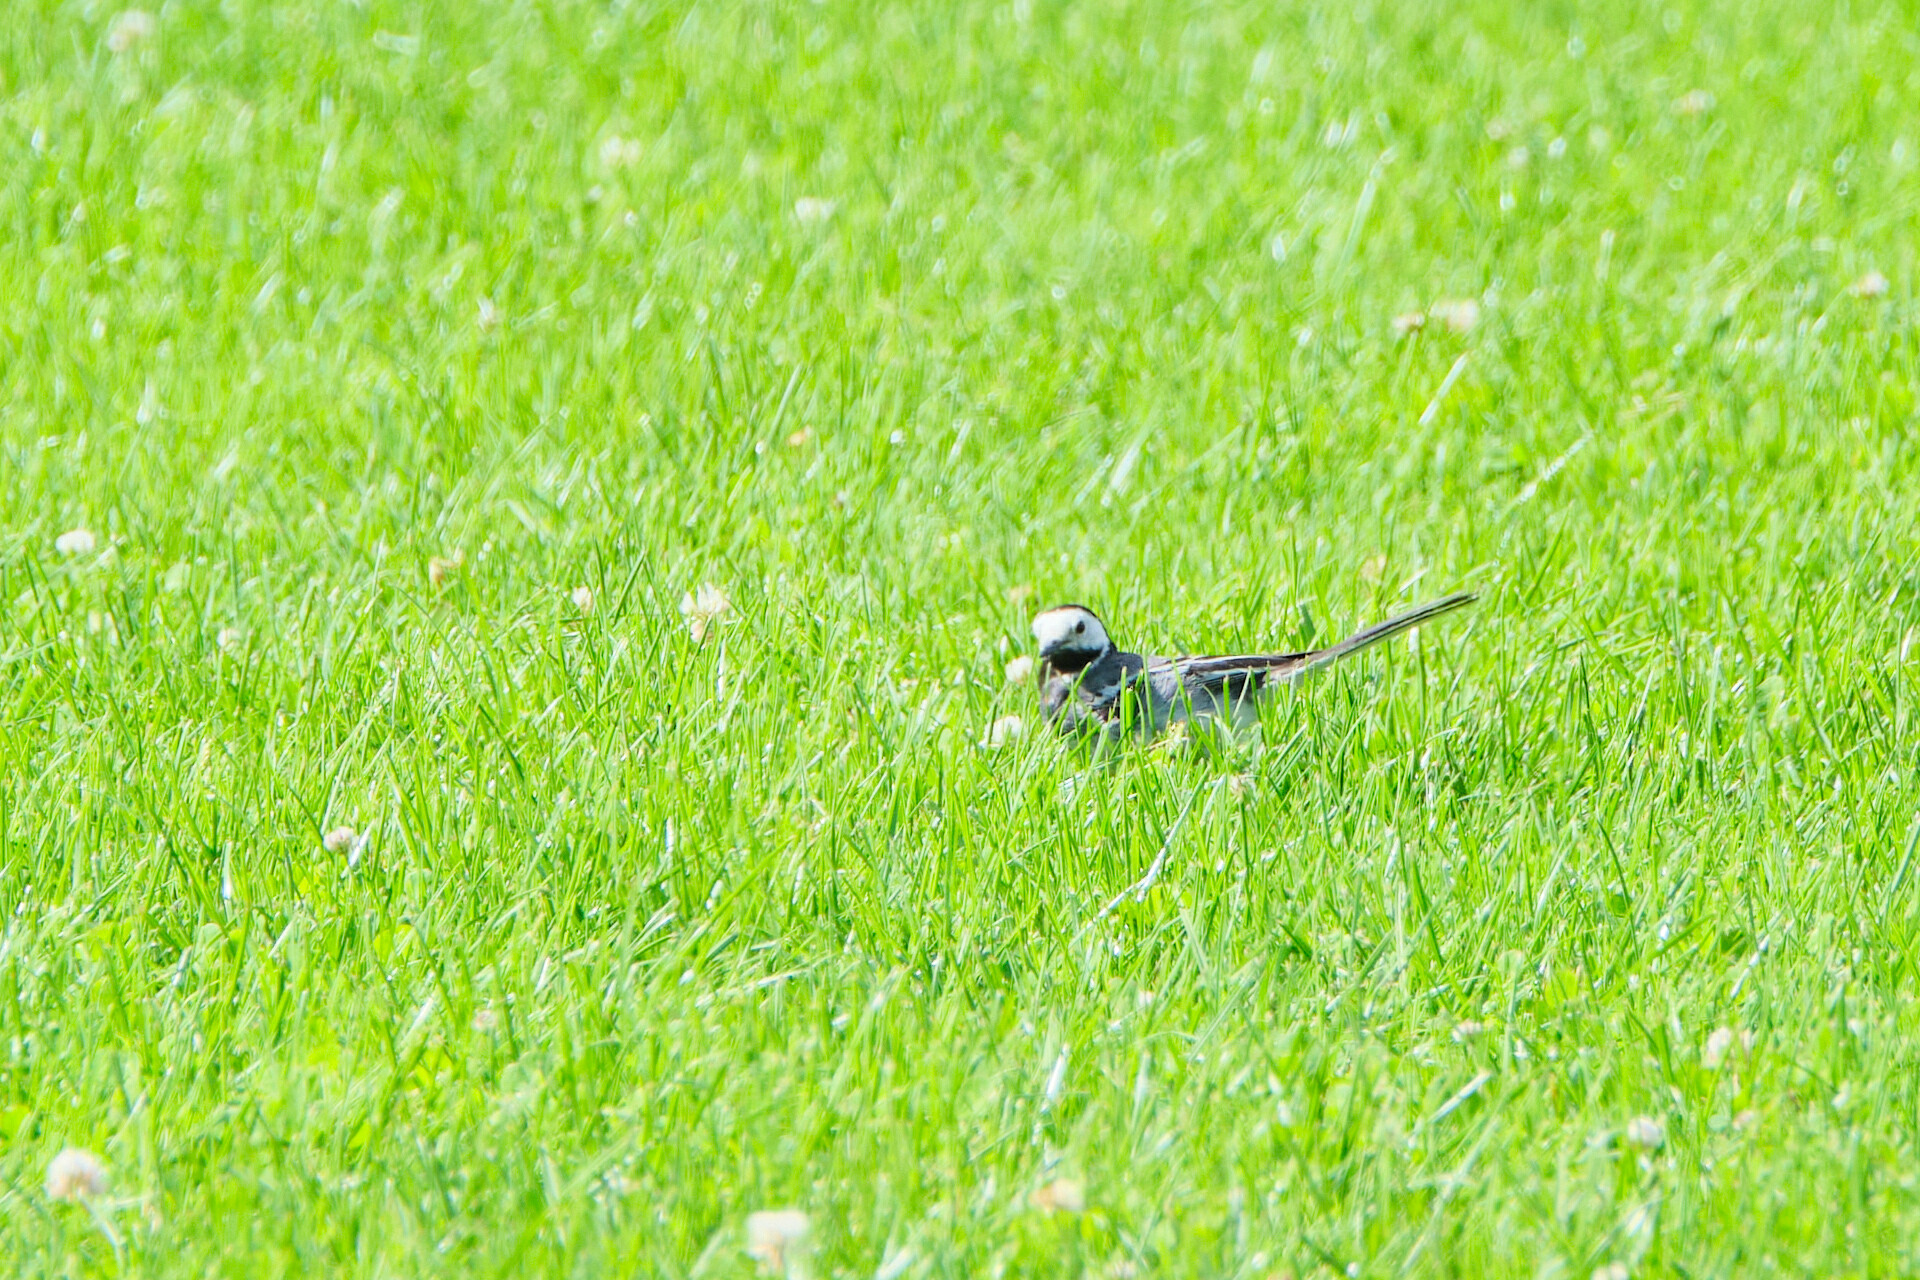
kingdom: Animalia
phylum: Chordata
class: Aves
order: Passeriformes
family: Motacillidae
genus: Motacilla
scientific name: Motacilla alba
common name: White wagtail
